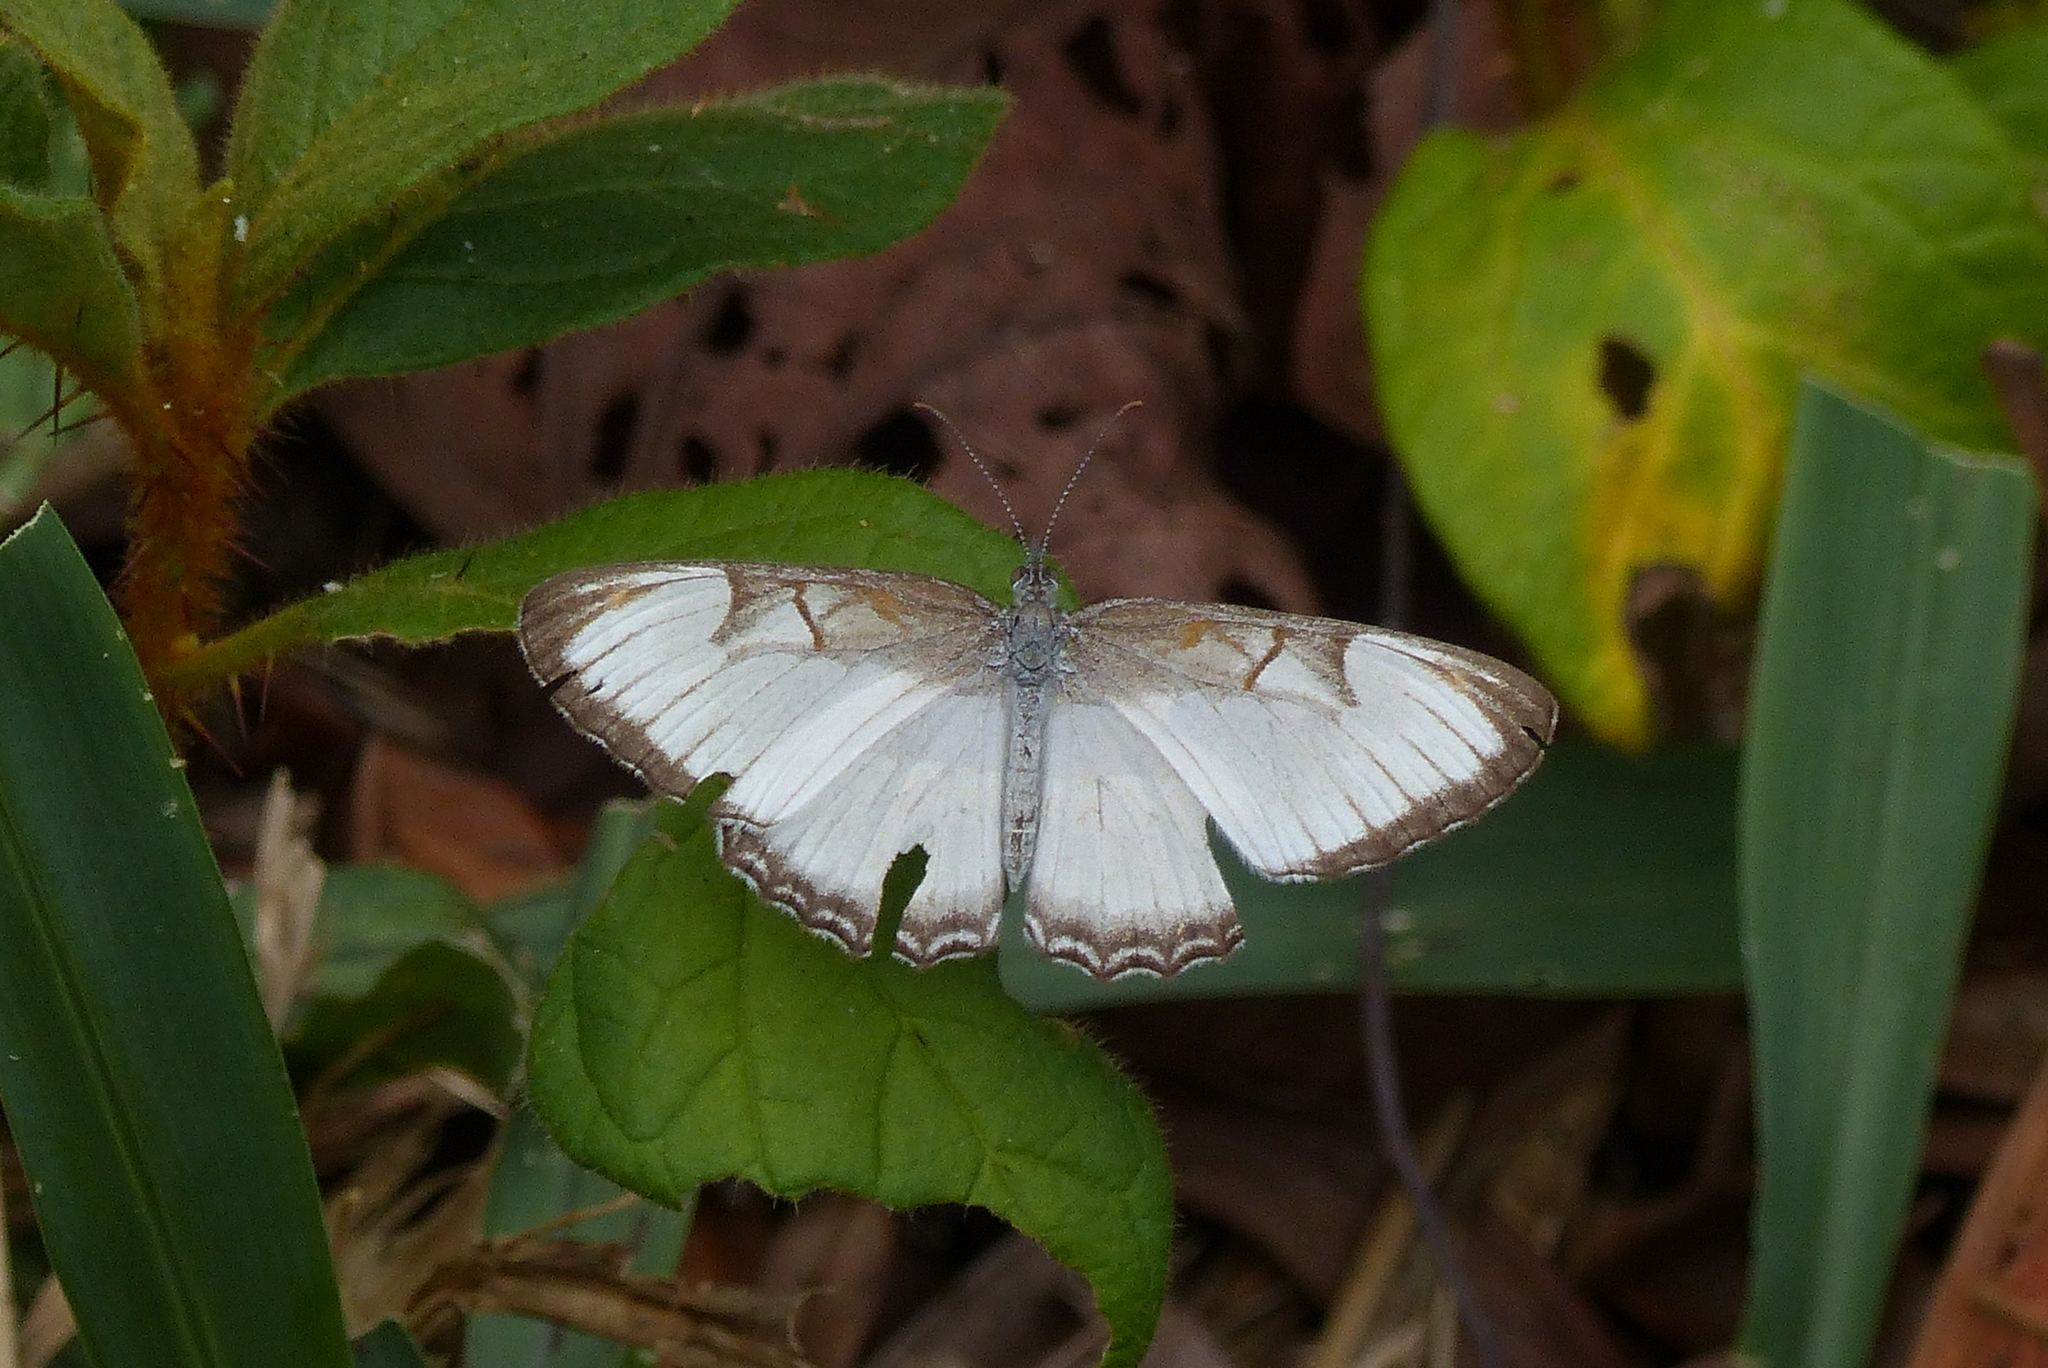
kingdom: Animalia
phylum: Arthropoda
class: Insecta
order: Lepidoptera
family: Nymphalidae
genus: Mestra
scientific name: Mestra hersilia
